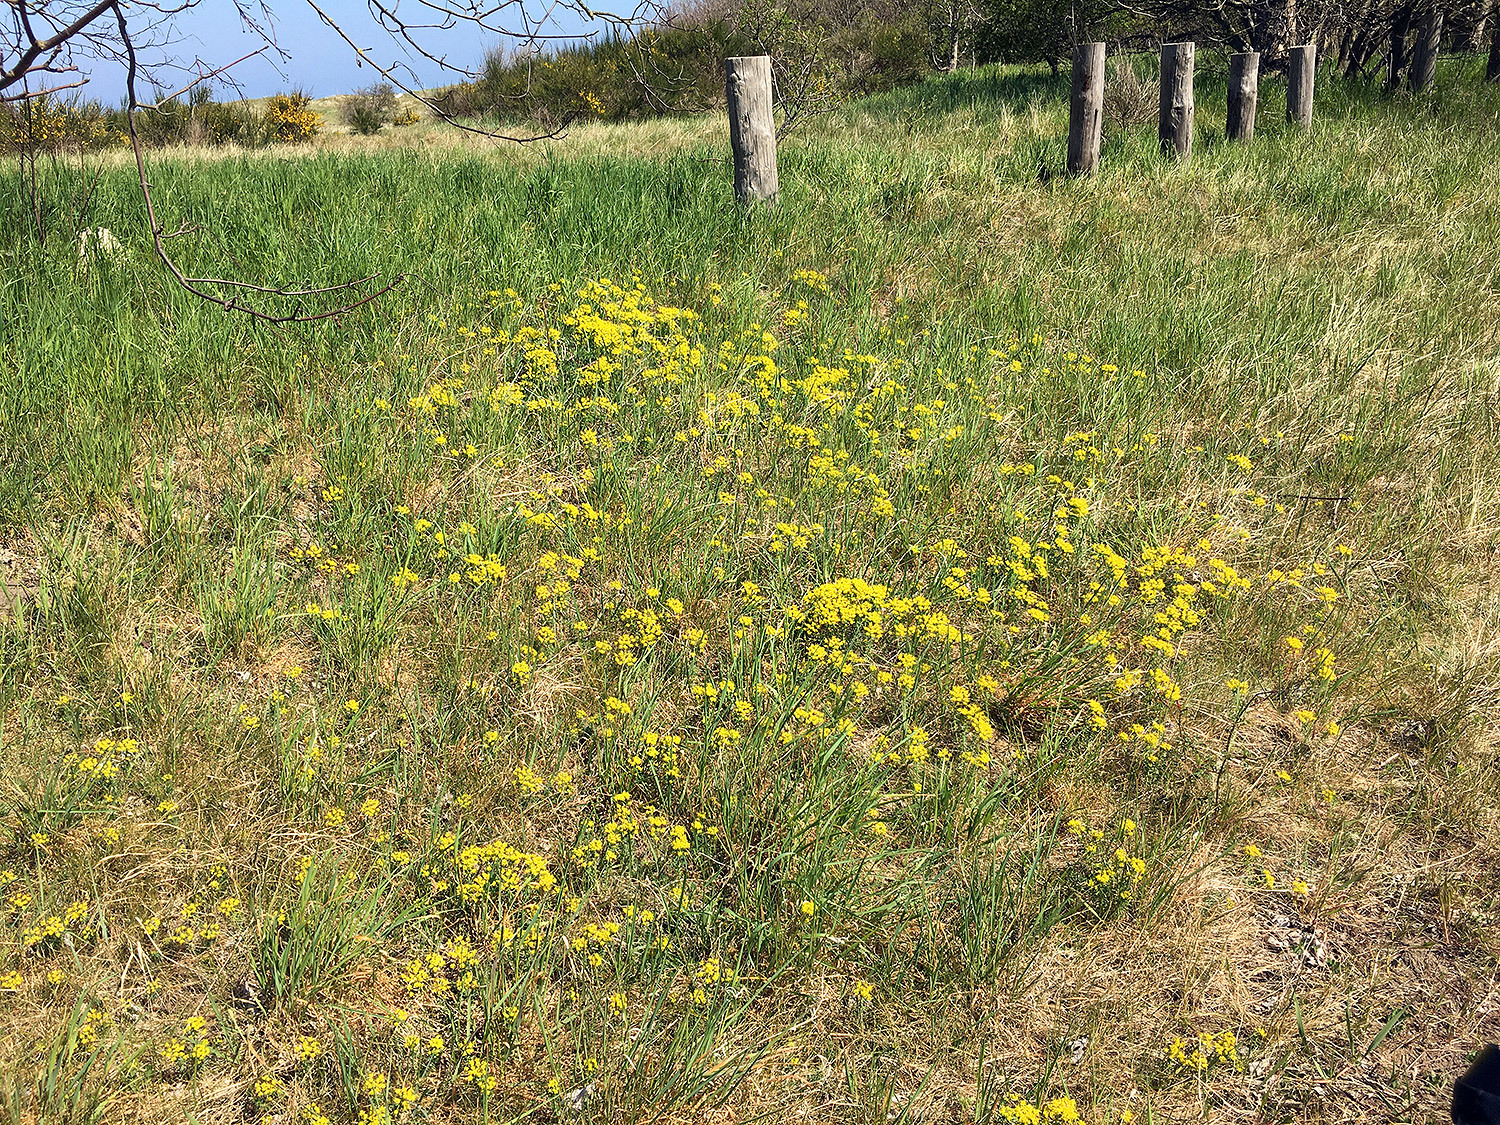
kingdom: Plantae
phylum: Tracheophyta
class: Magnoliopsida
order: Malpighiales
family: Euphorbiaceae
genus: Euphorbia
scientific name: Euphorbia cyparissias
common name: Cypress spurge
